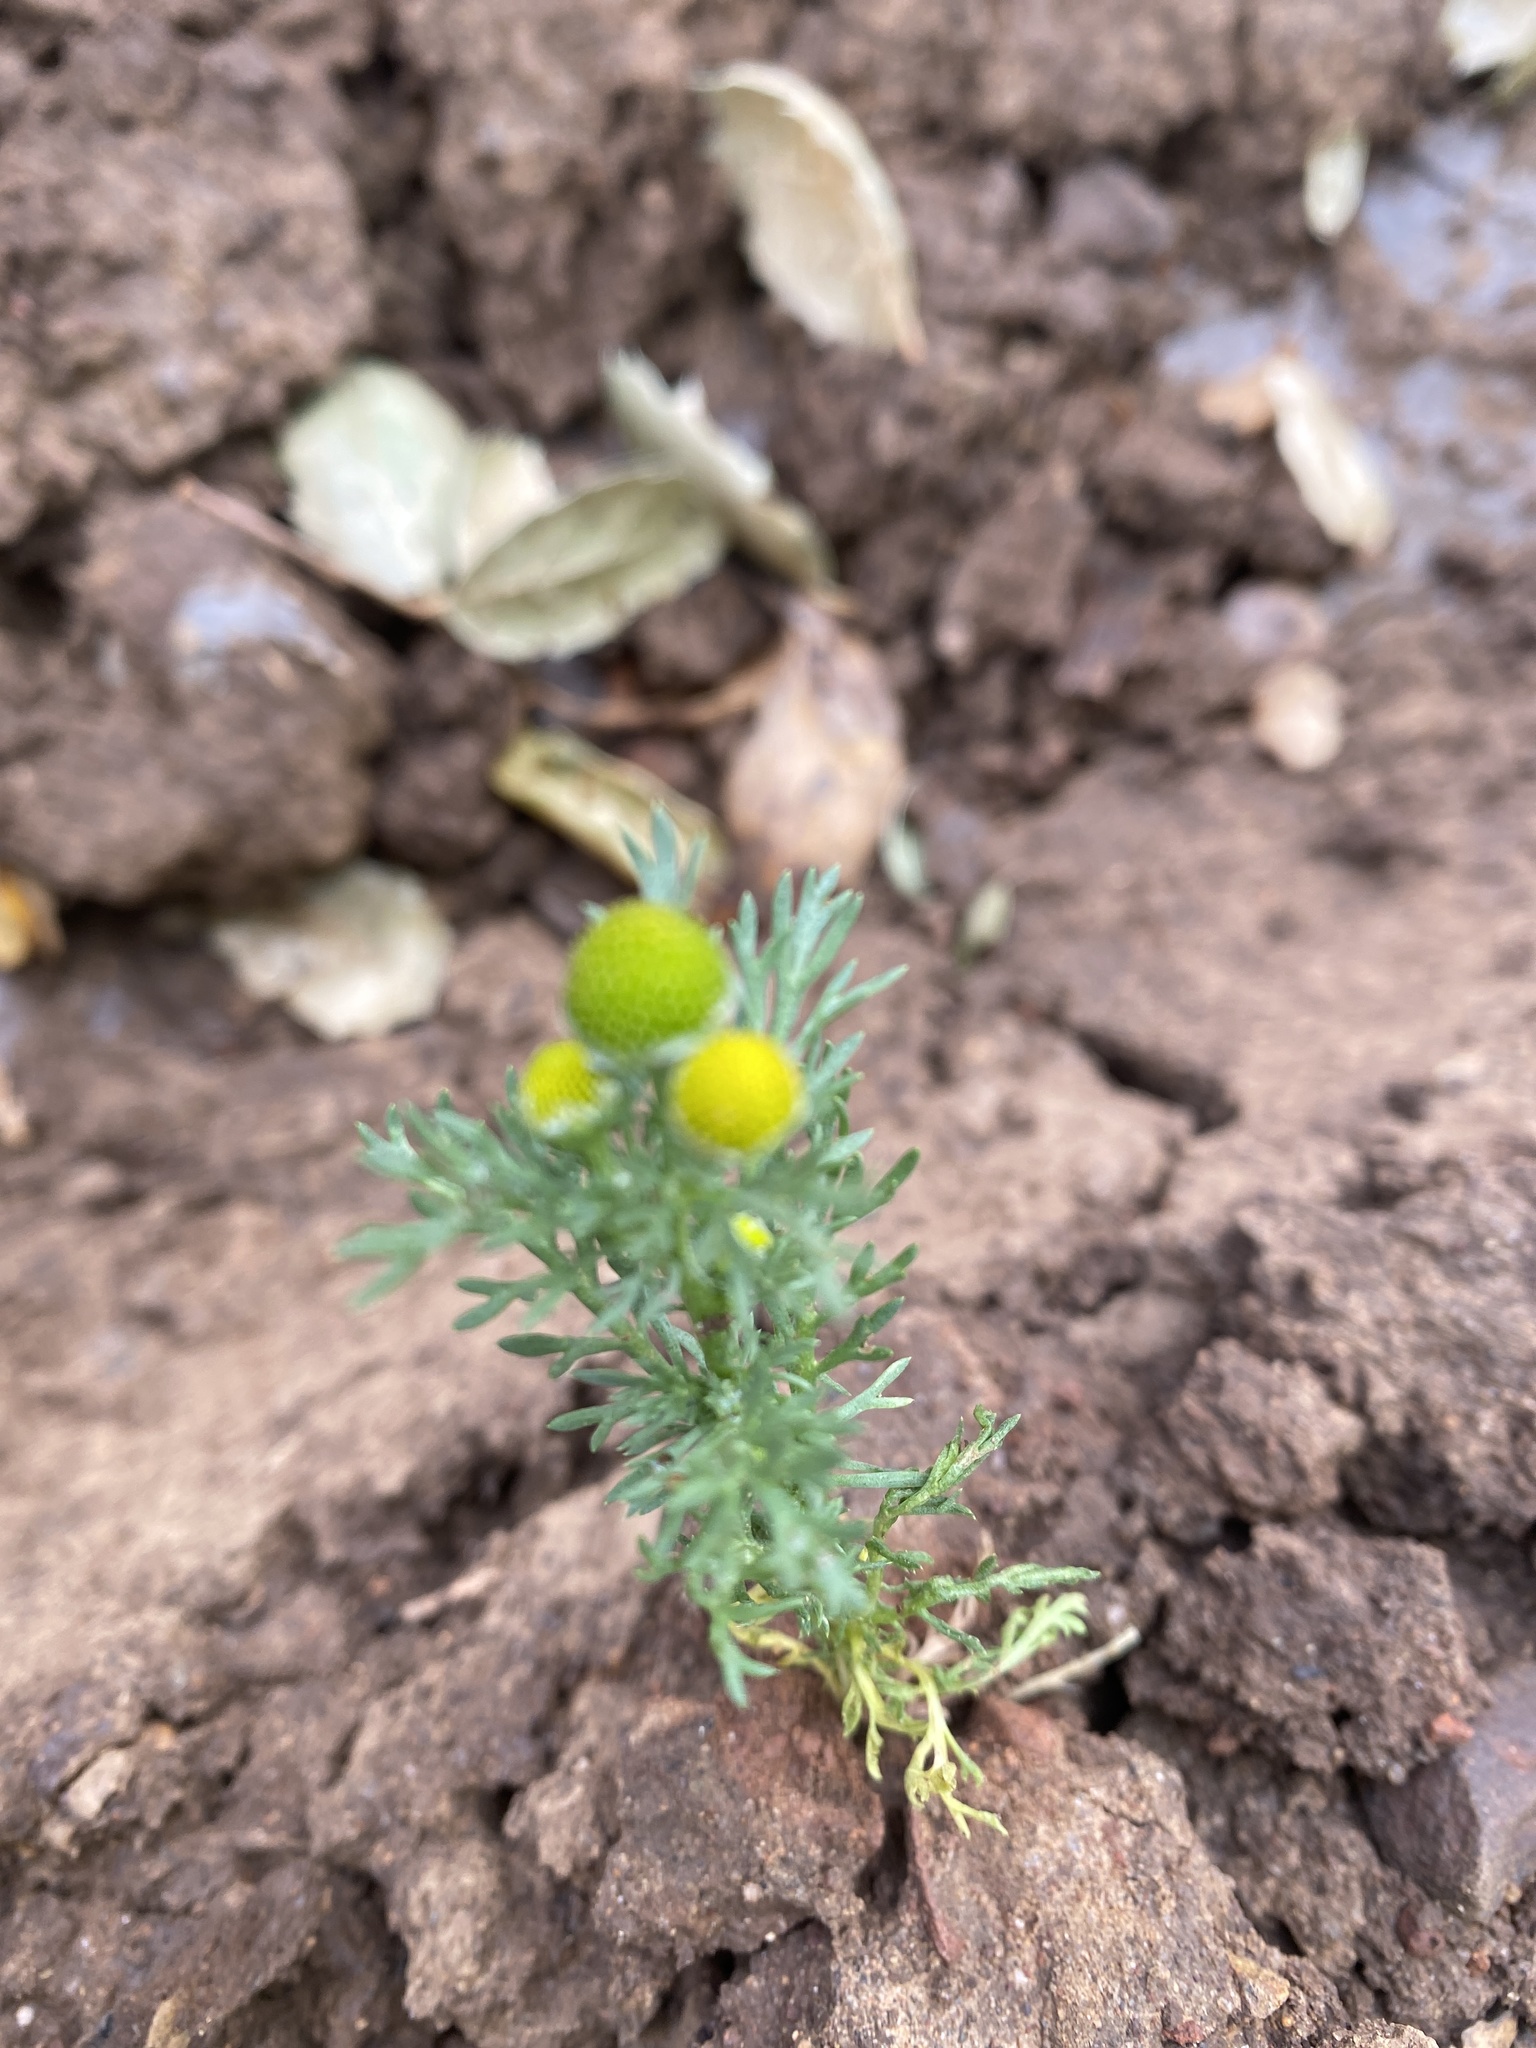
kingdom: Plantae
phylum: Tracheophyta
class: Magnoliopsida
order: Asterales
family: Asteraceae
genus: Matricaria
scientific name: Matricaria discoidea
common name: Disc mayweed
